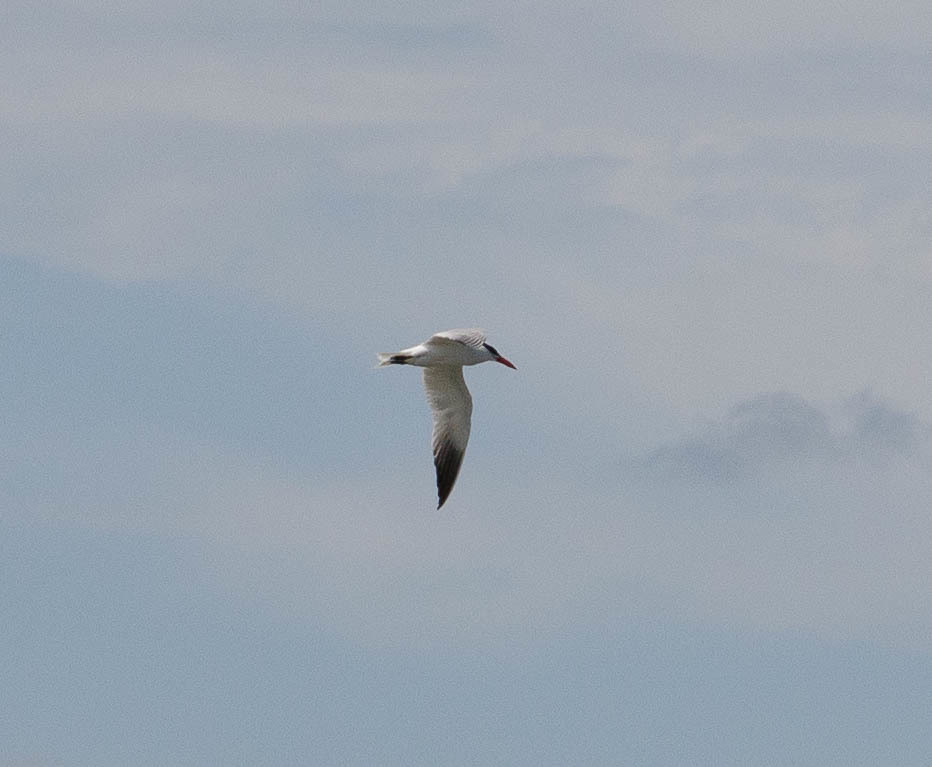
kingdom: Animalia
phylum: Chordata
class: Aves
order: Charadriiformes
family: Laridae
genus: Hydroprogne
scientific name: Hydroprogne caspia
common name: Caspian tern
